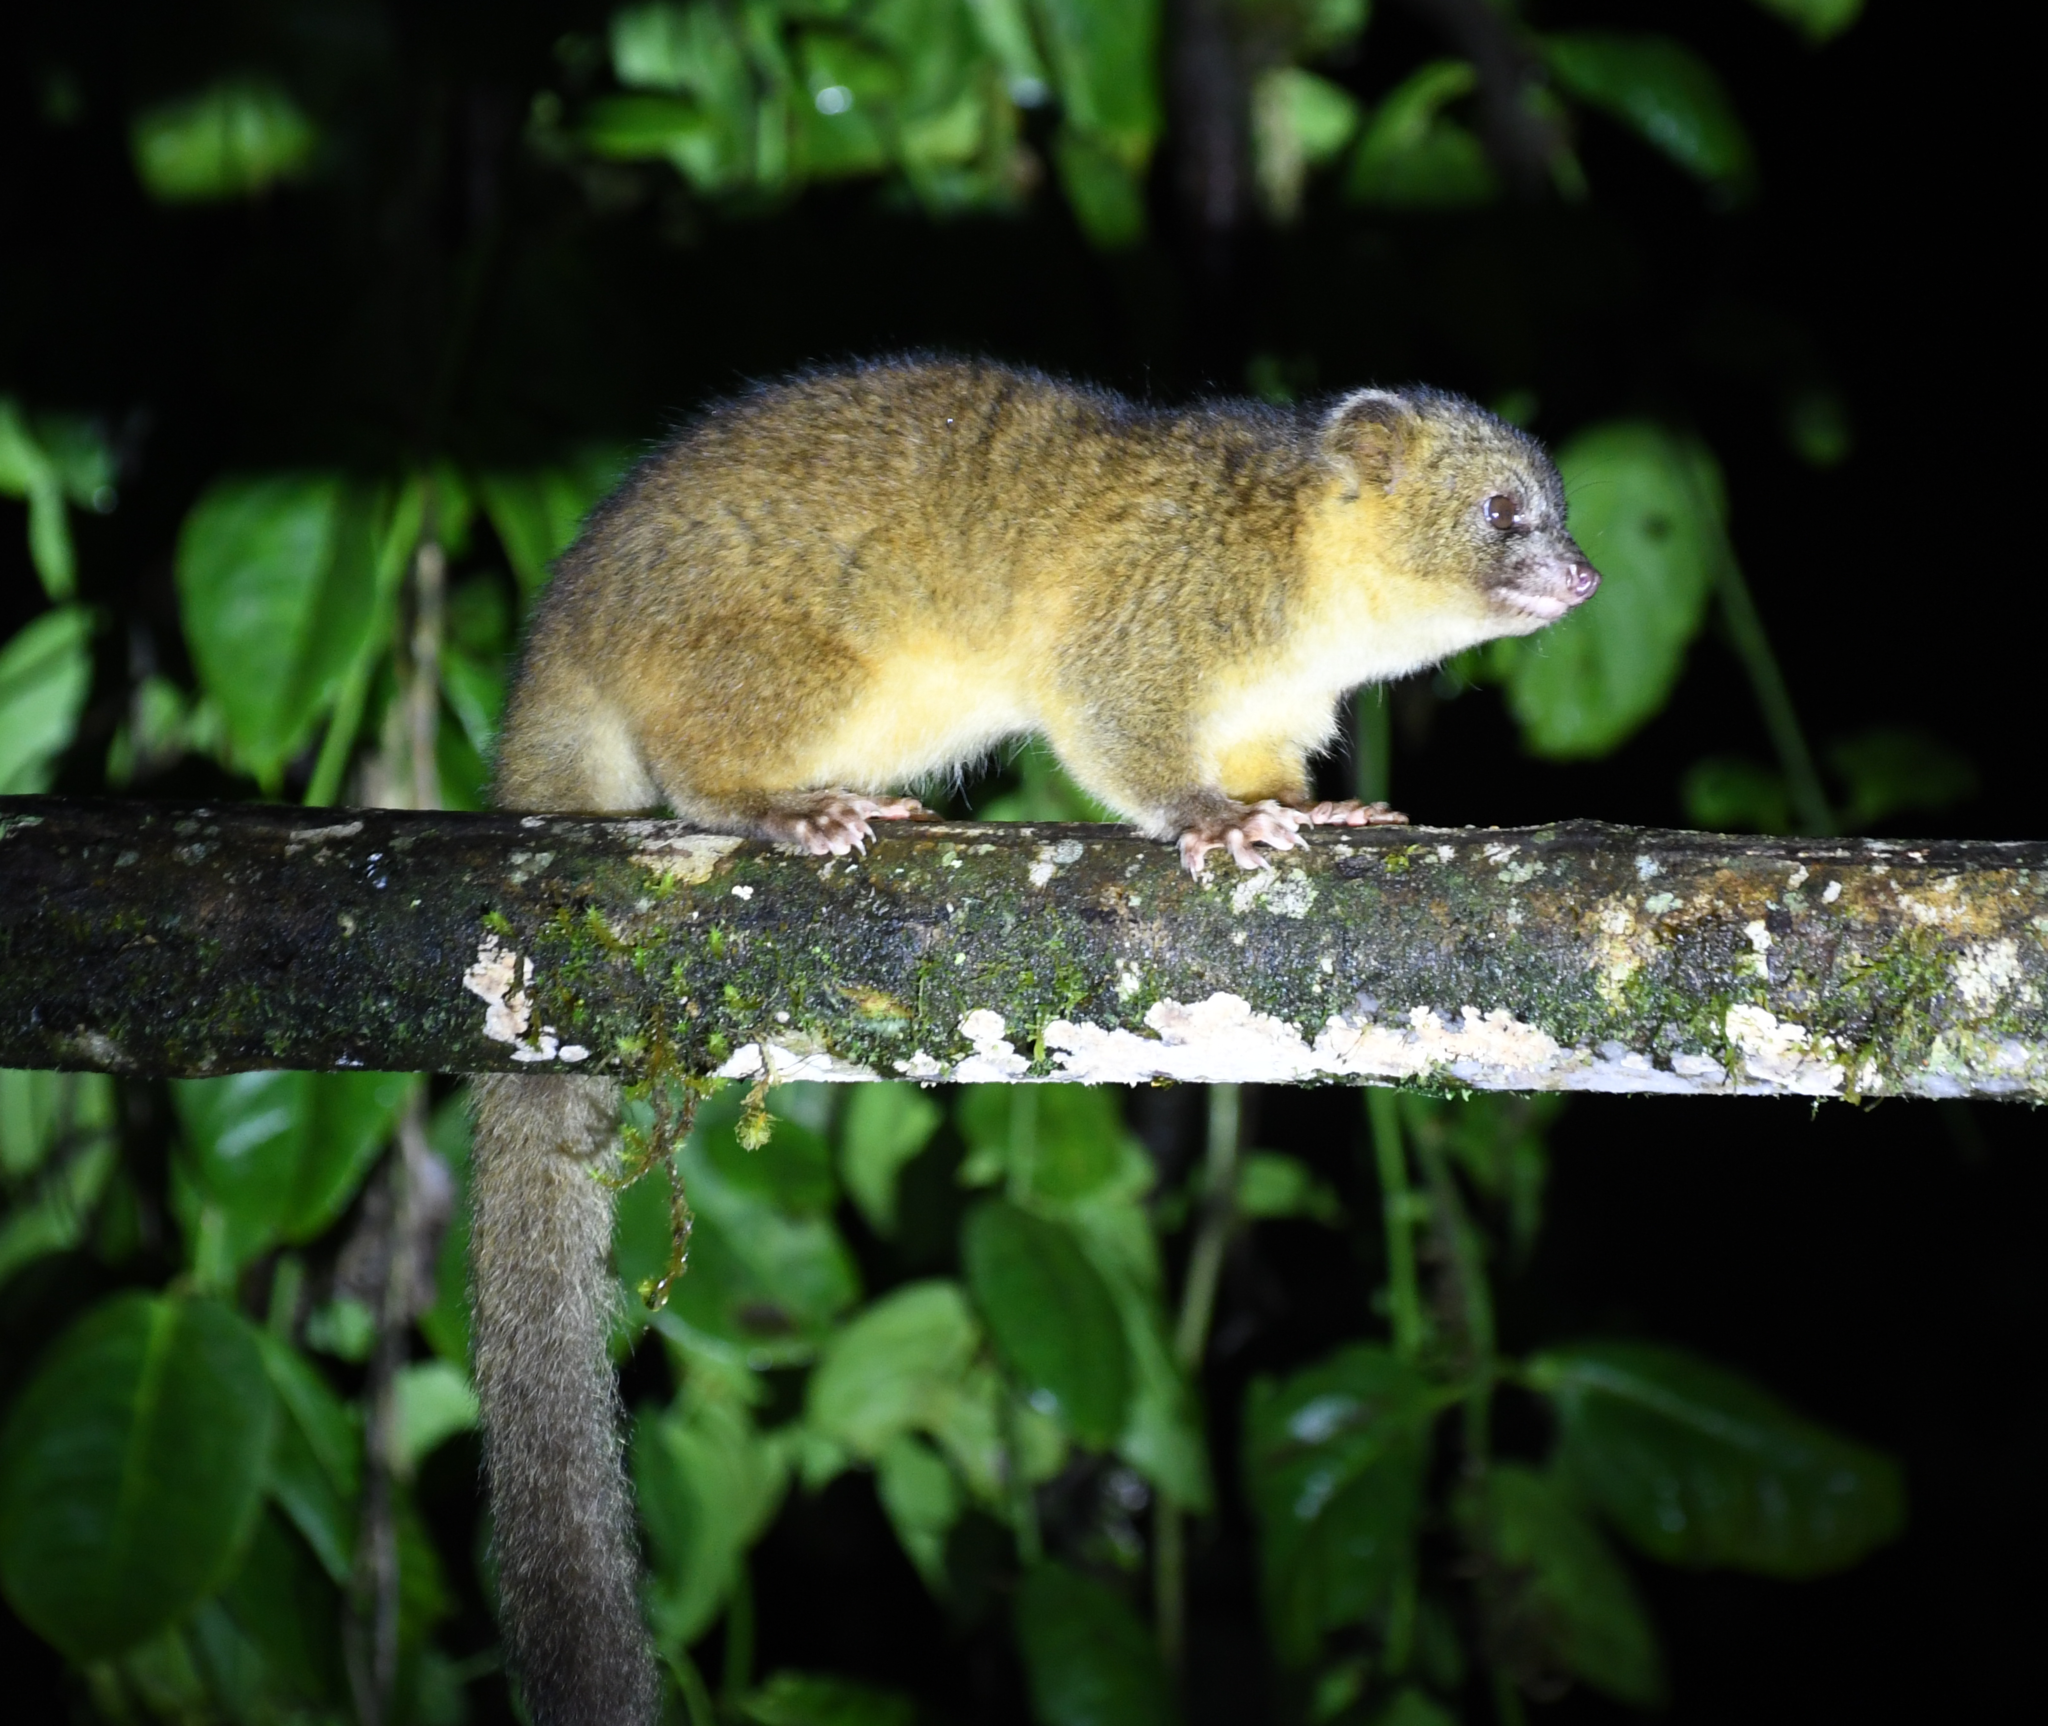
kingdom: Animalia
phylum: Chordata
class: Mammalia
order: Carnivora
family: Procyonidae
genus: Bassaricyon
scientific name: Bassaricyon neblina
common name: Olinguito
